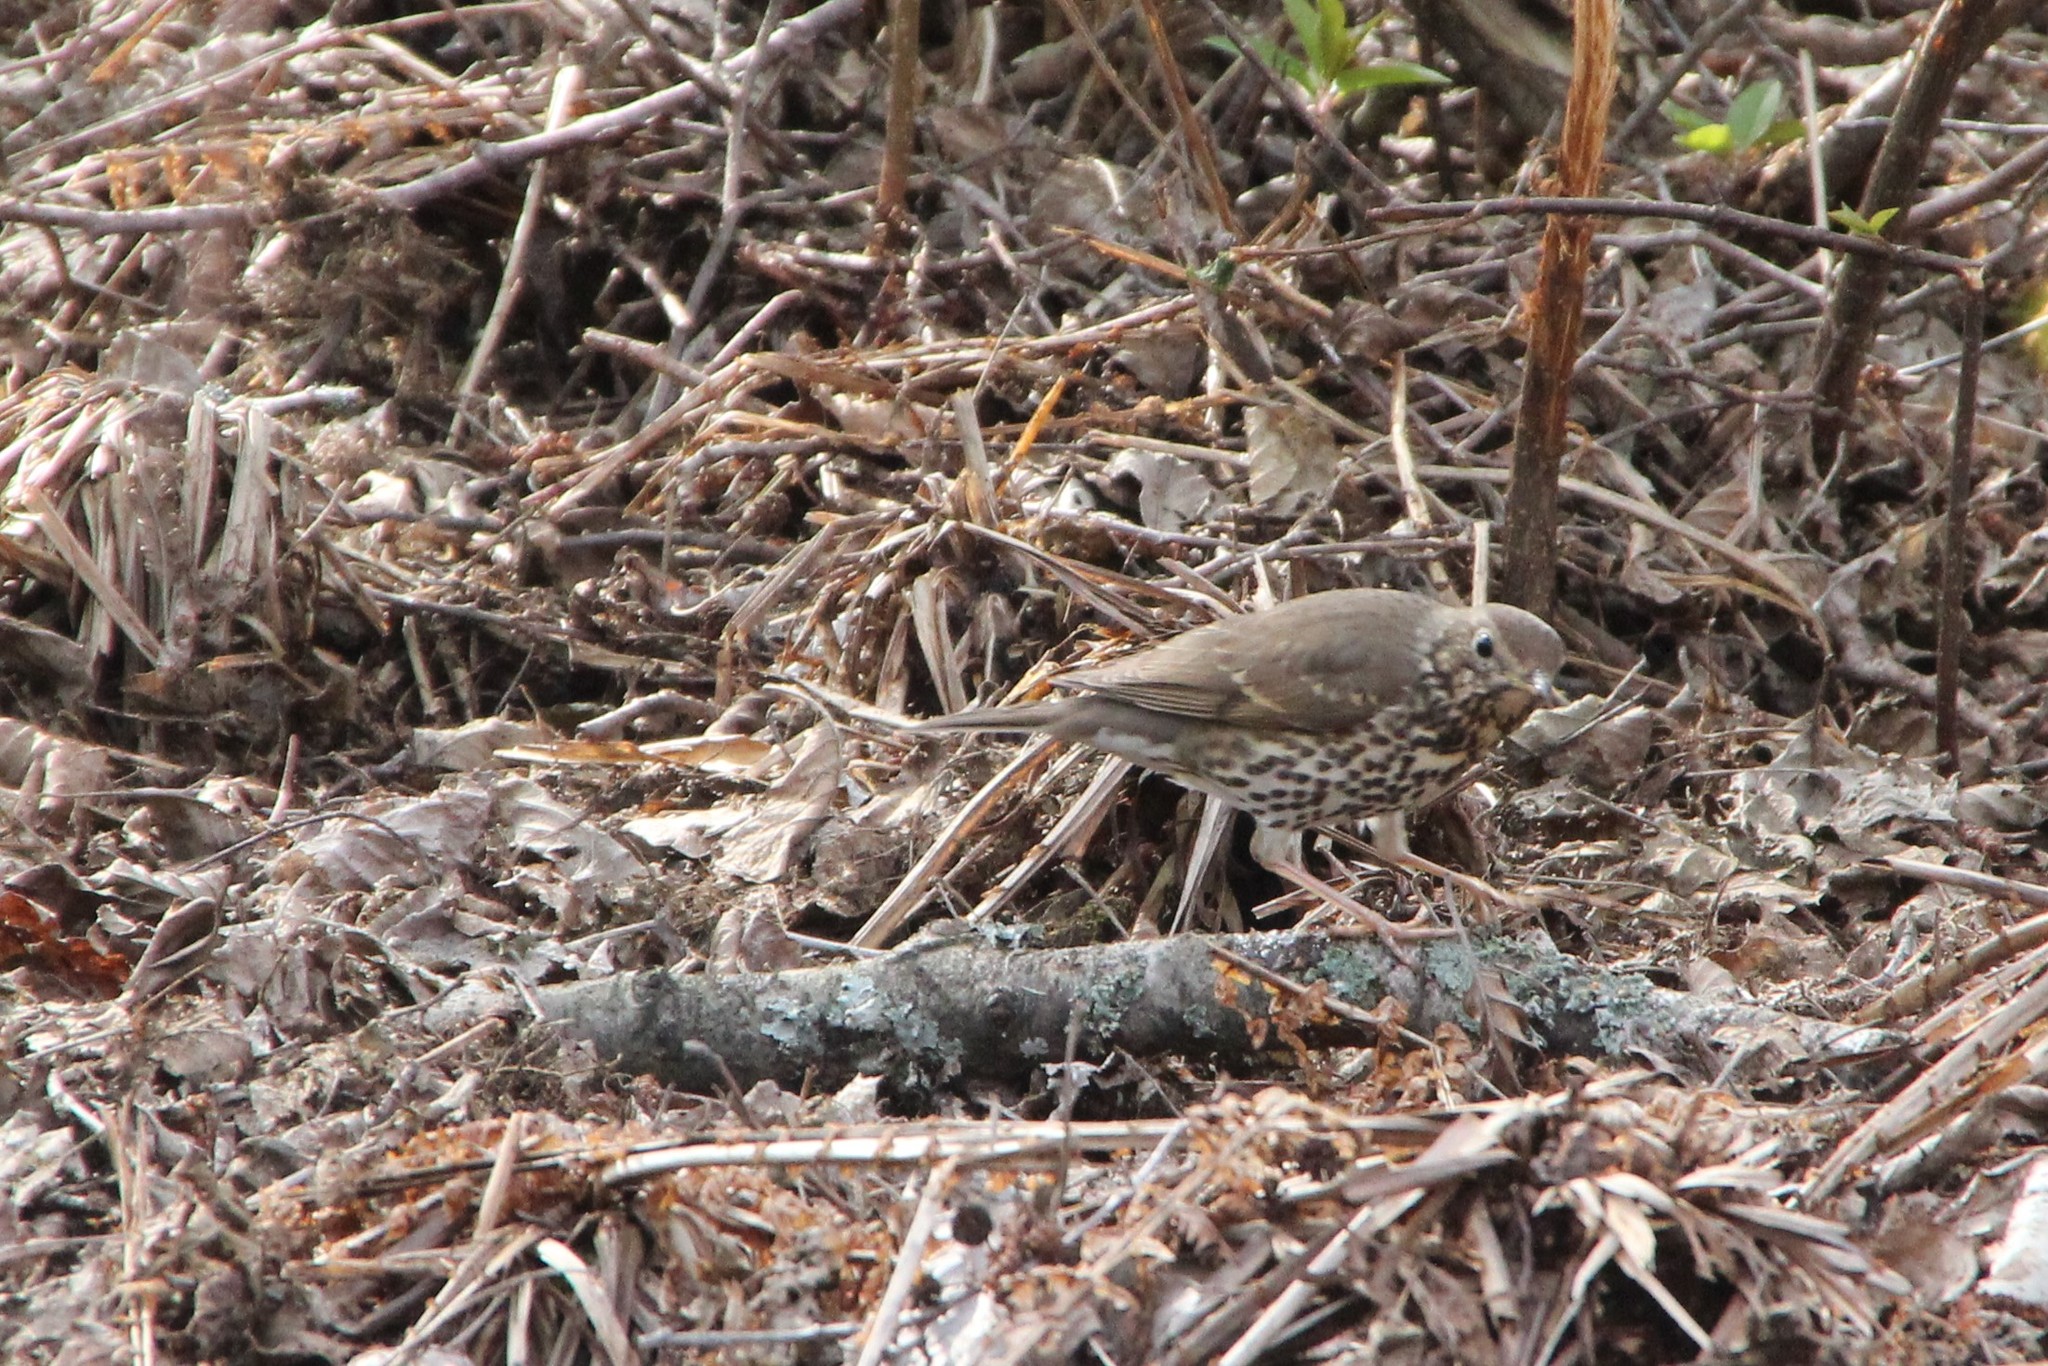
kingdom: Animalia
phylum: Chordata
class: Aves
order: Passeriformes
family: Turdidae
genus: Turdus
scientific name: Turdus philomelos
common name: Song thrush
